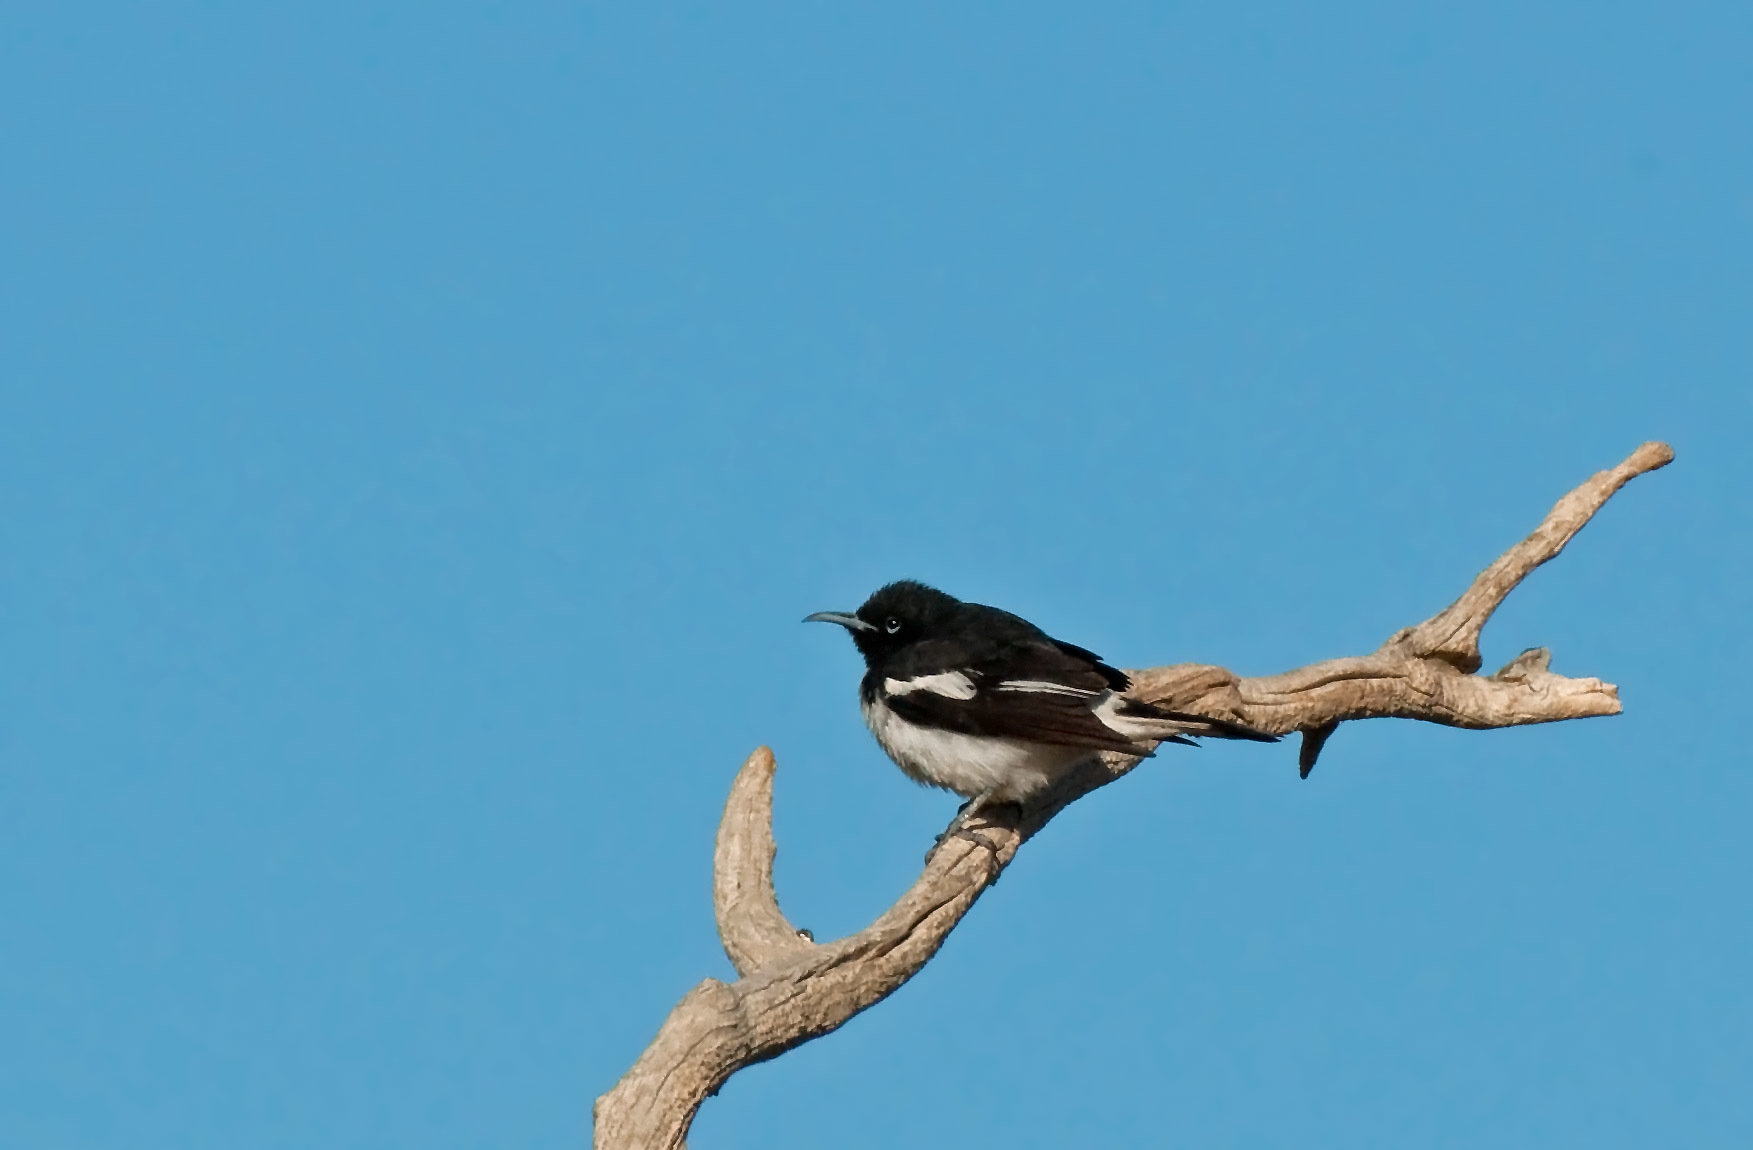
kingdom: Animalia
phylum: Chordata
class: Aves
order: Passeriformes
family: Meliphagidae
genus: Certhionyx
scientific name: Certhionyx variegatus
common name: Pied honeyeater
